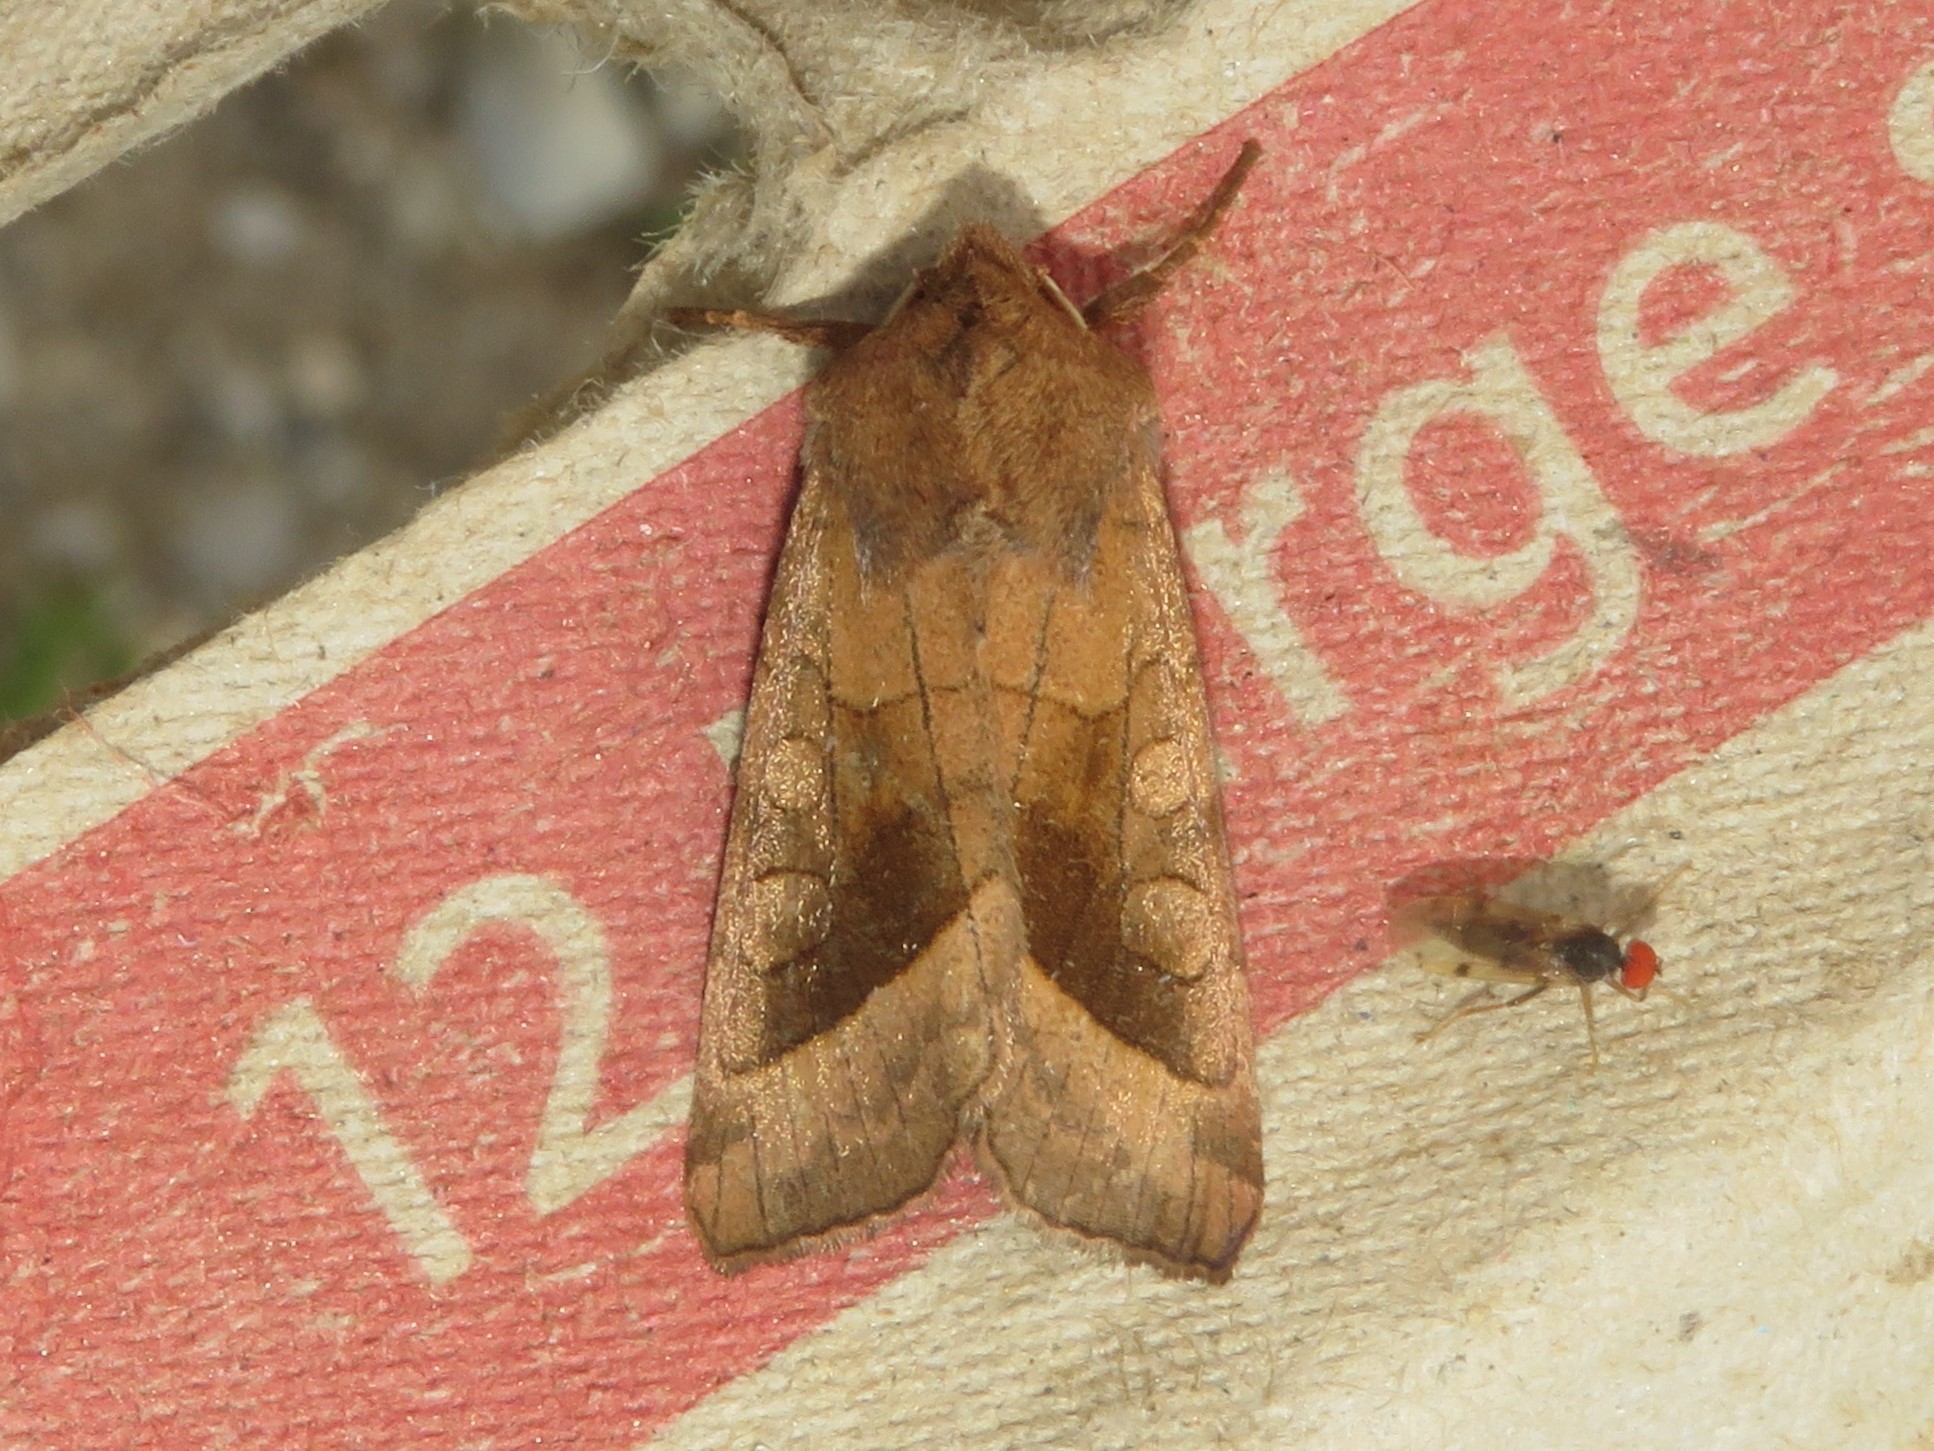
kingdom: Animalia
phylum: Arthropoda
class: Insecta
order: Lepidoptera
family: Noctuidae
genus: Hydraecia
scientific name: Hydraecia micacea
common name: Rosy rustic
